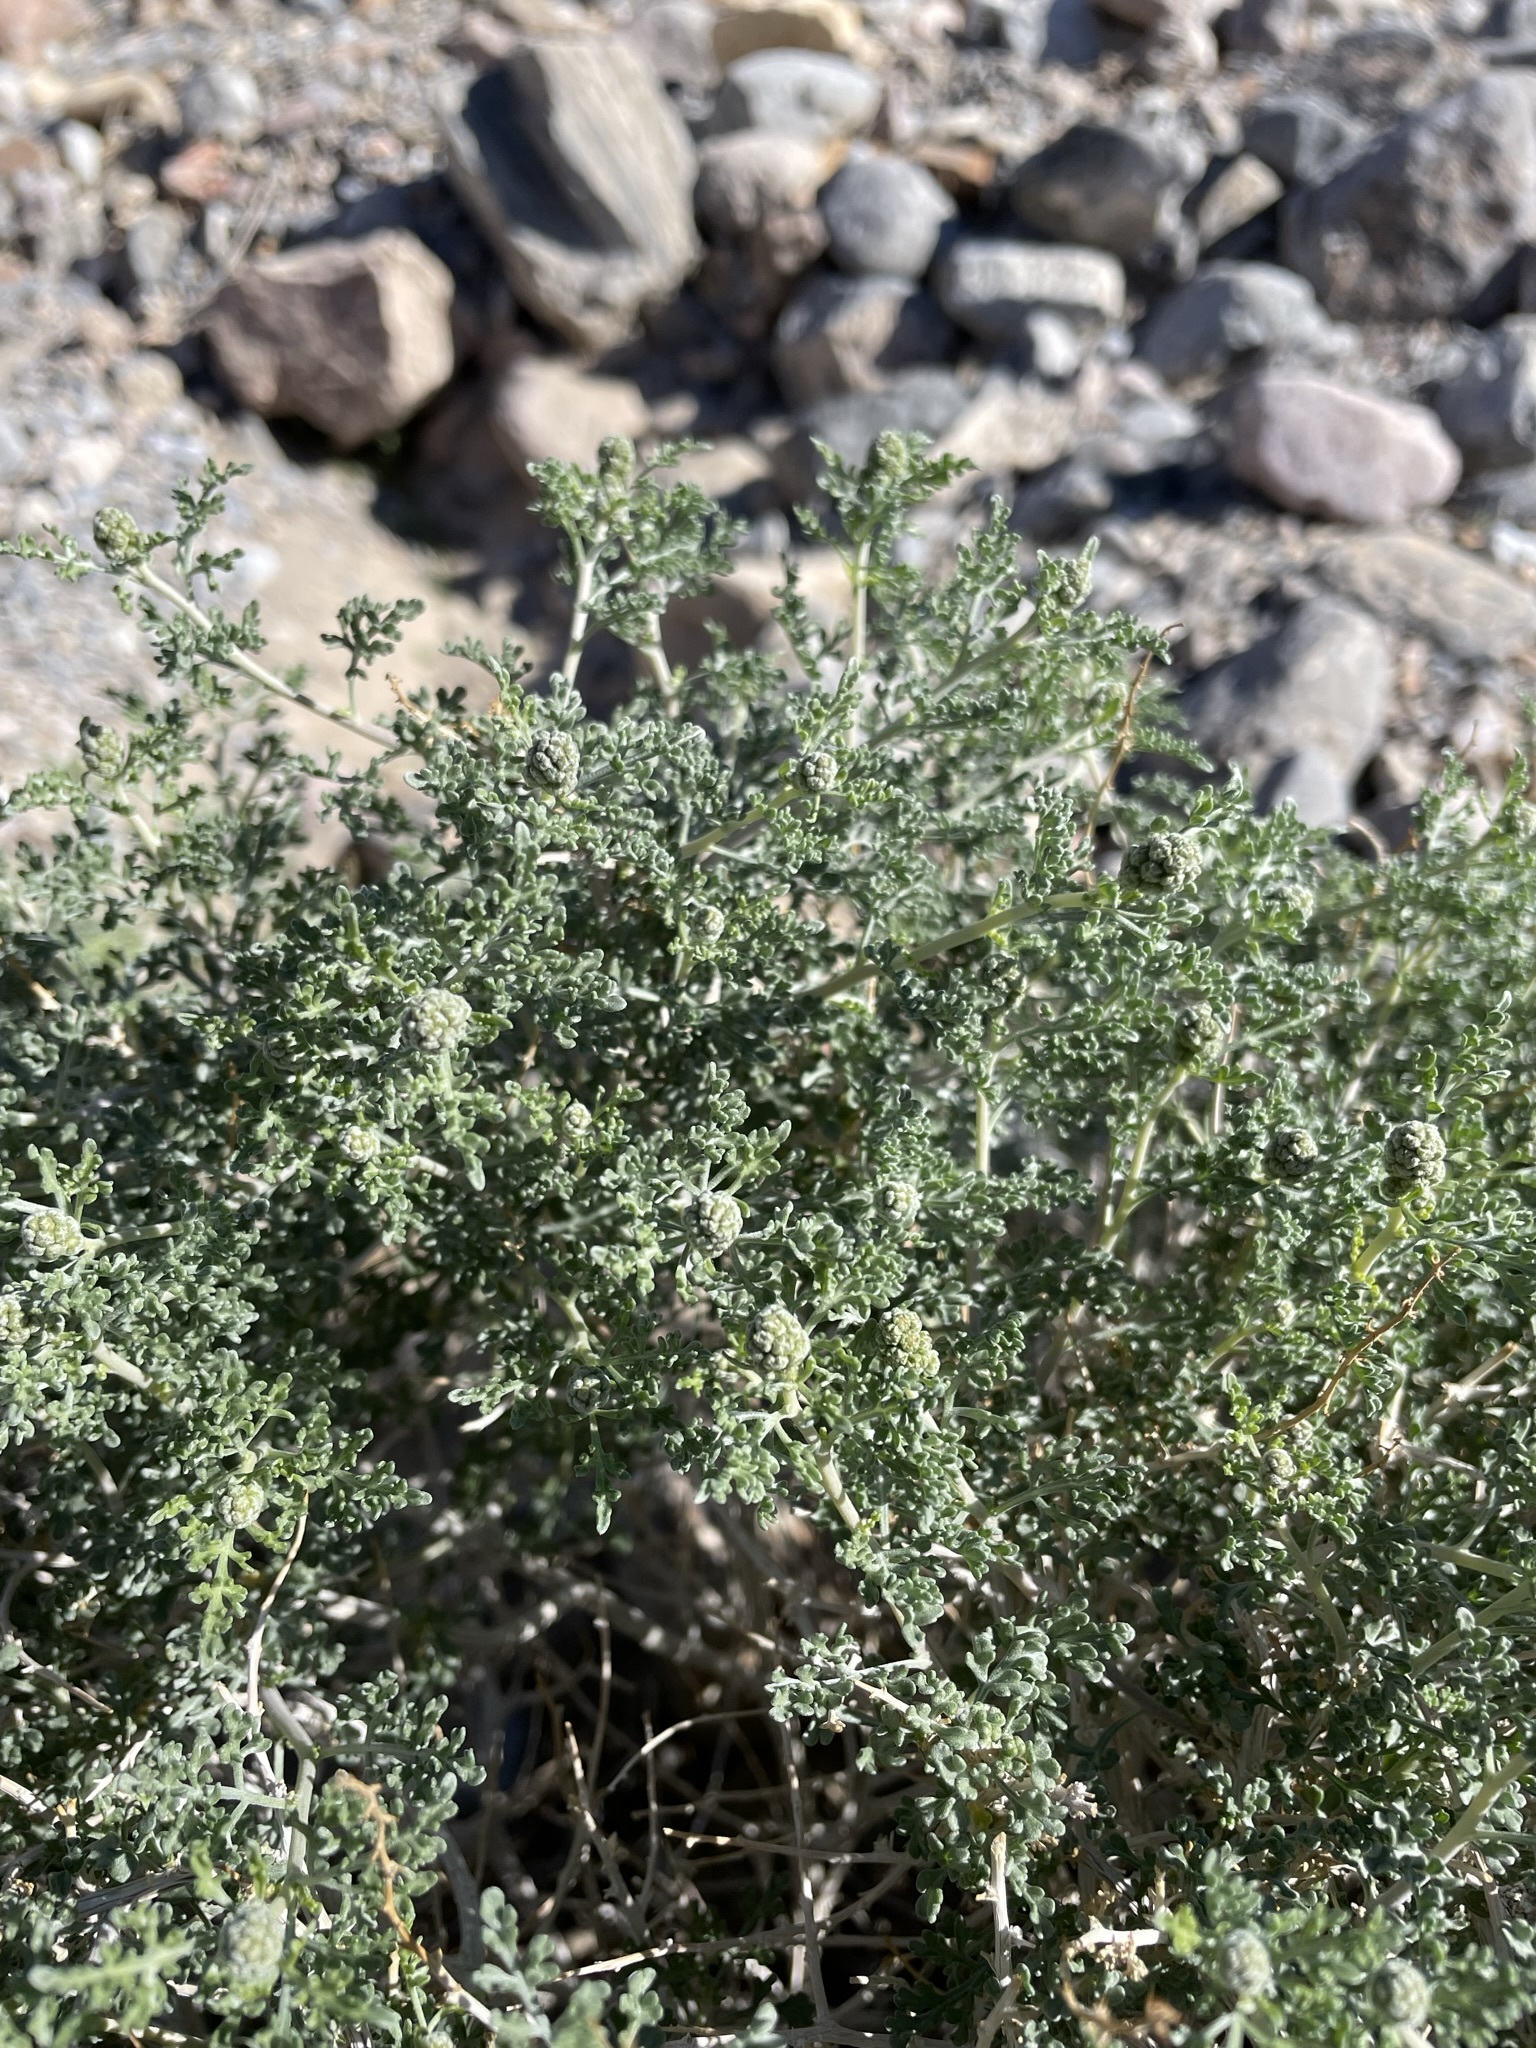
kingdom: Plantae
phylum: Tracheophyta
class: Magnoliopsida
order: Asterales
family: Asteraceae
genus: Ambrosia
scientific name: Ambrosia dumosa
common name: Bur-sage
